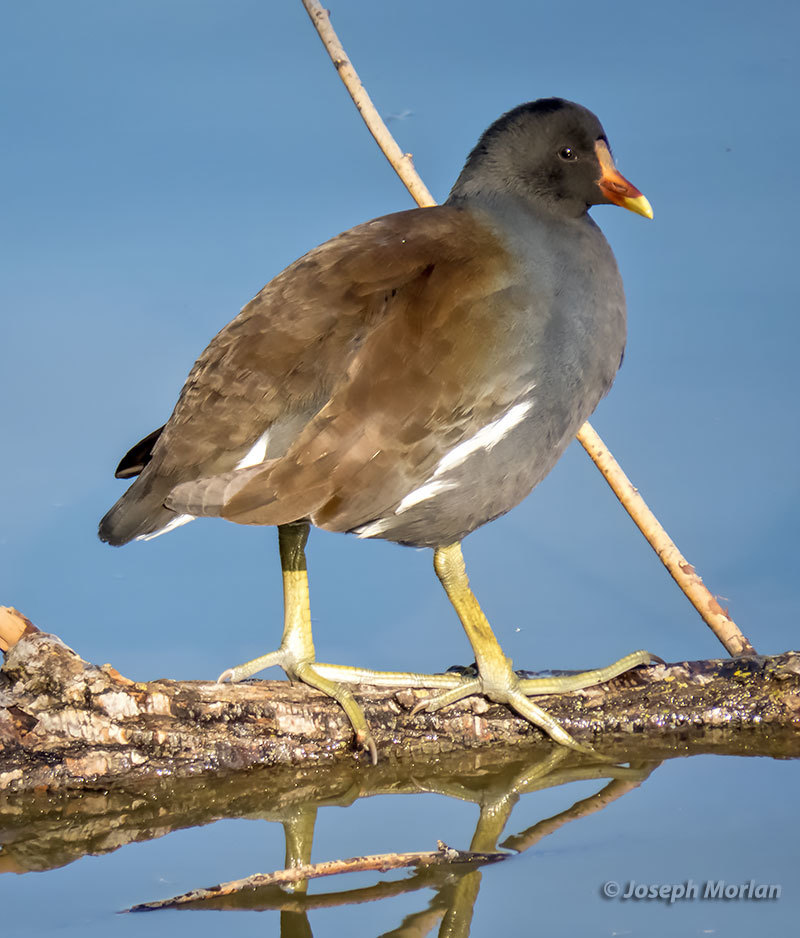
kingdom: Animalia
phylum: Chordata
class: Aves
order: Gruiformes
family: Rallidae
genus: Gallinula
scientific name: Gallinula chloropus
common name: Common moorhen
